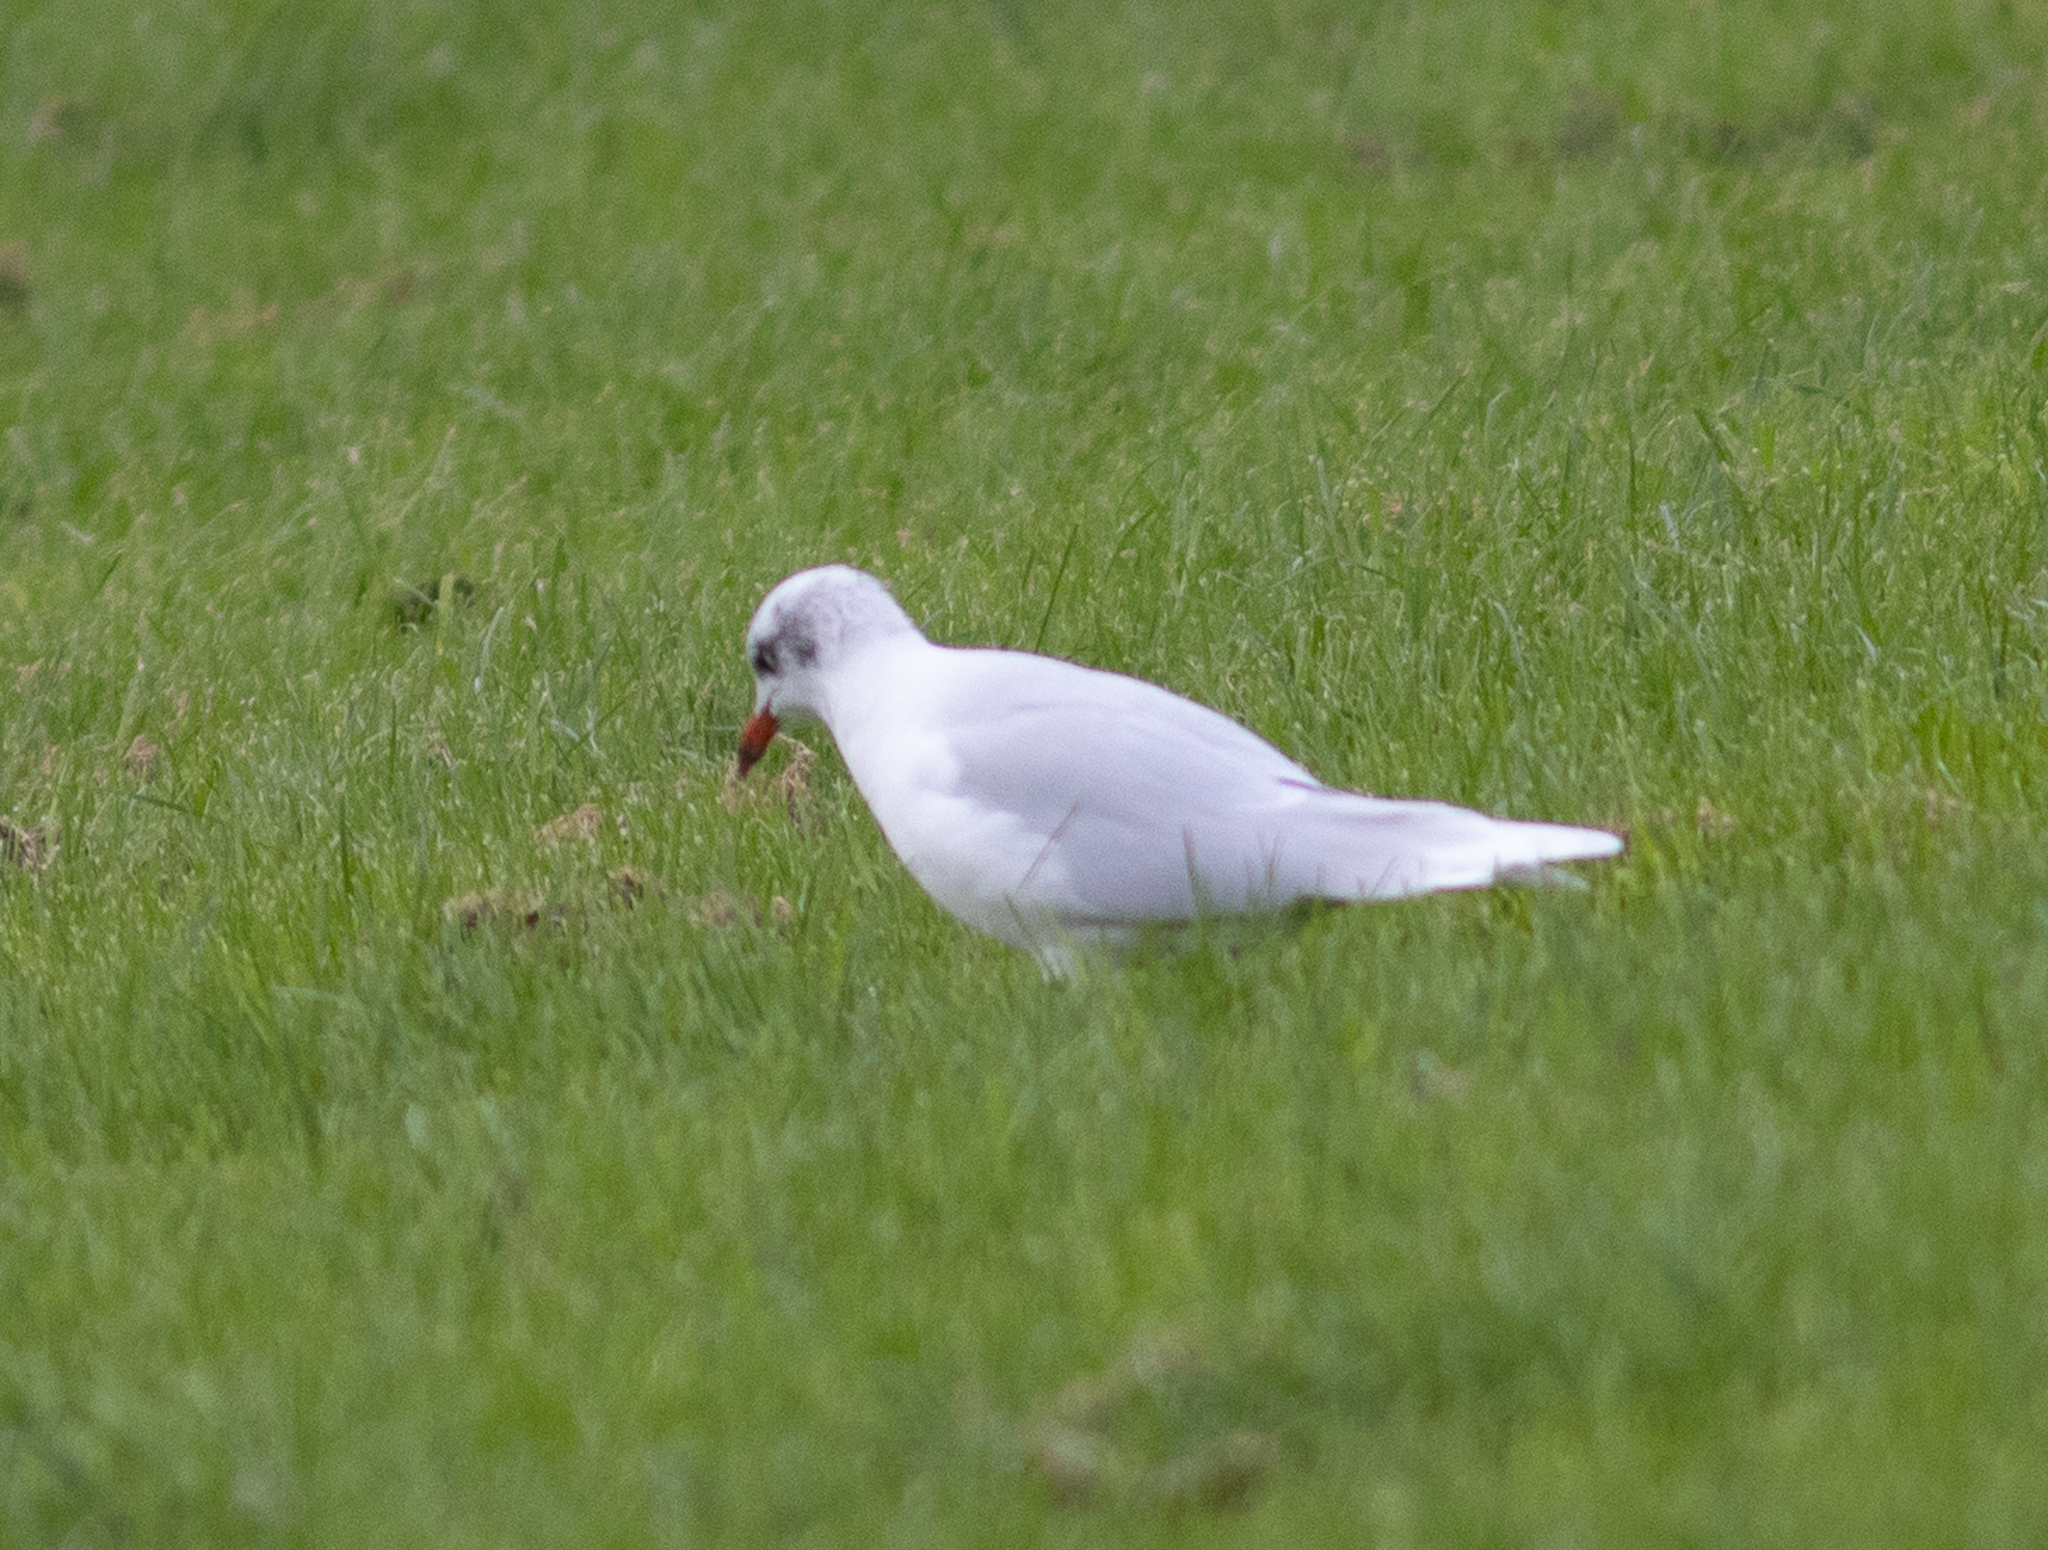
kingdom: Animalia
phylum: Chordata
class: Aves
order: Charadriiformes
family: Laridae
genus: Ichthyaetus
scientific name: Ichthyaetus melanocephalus
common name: Mediterranean gull
